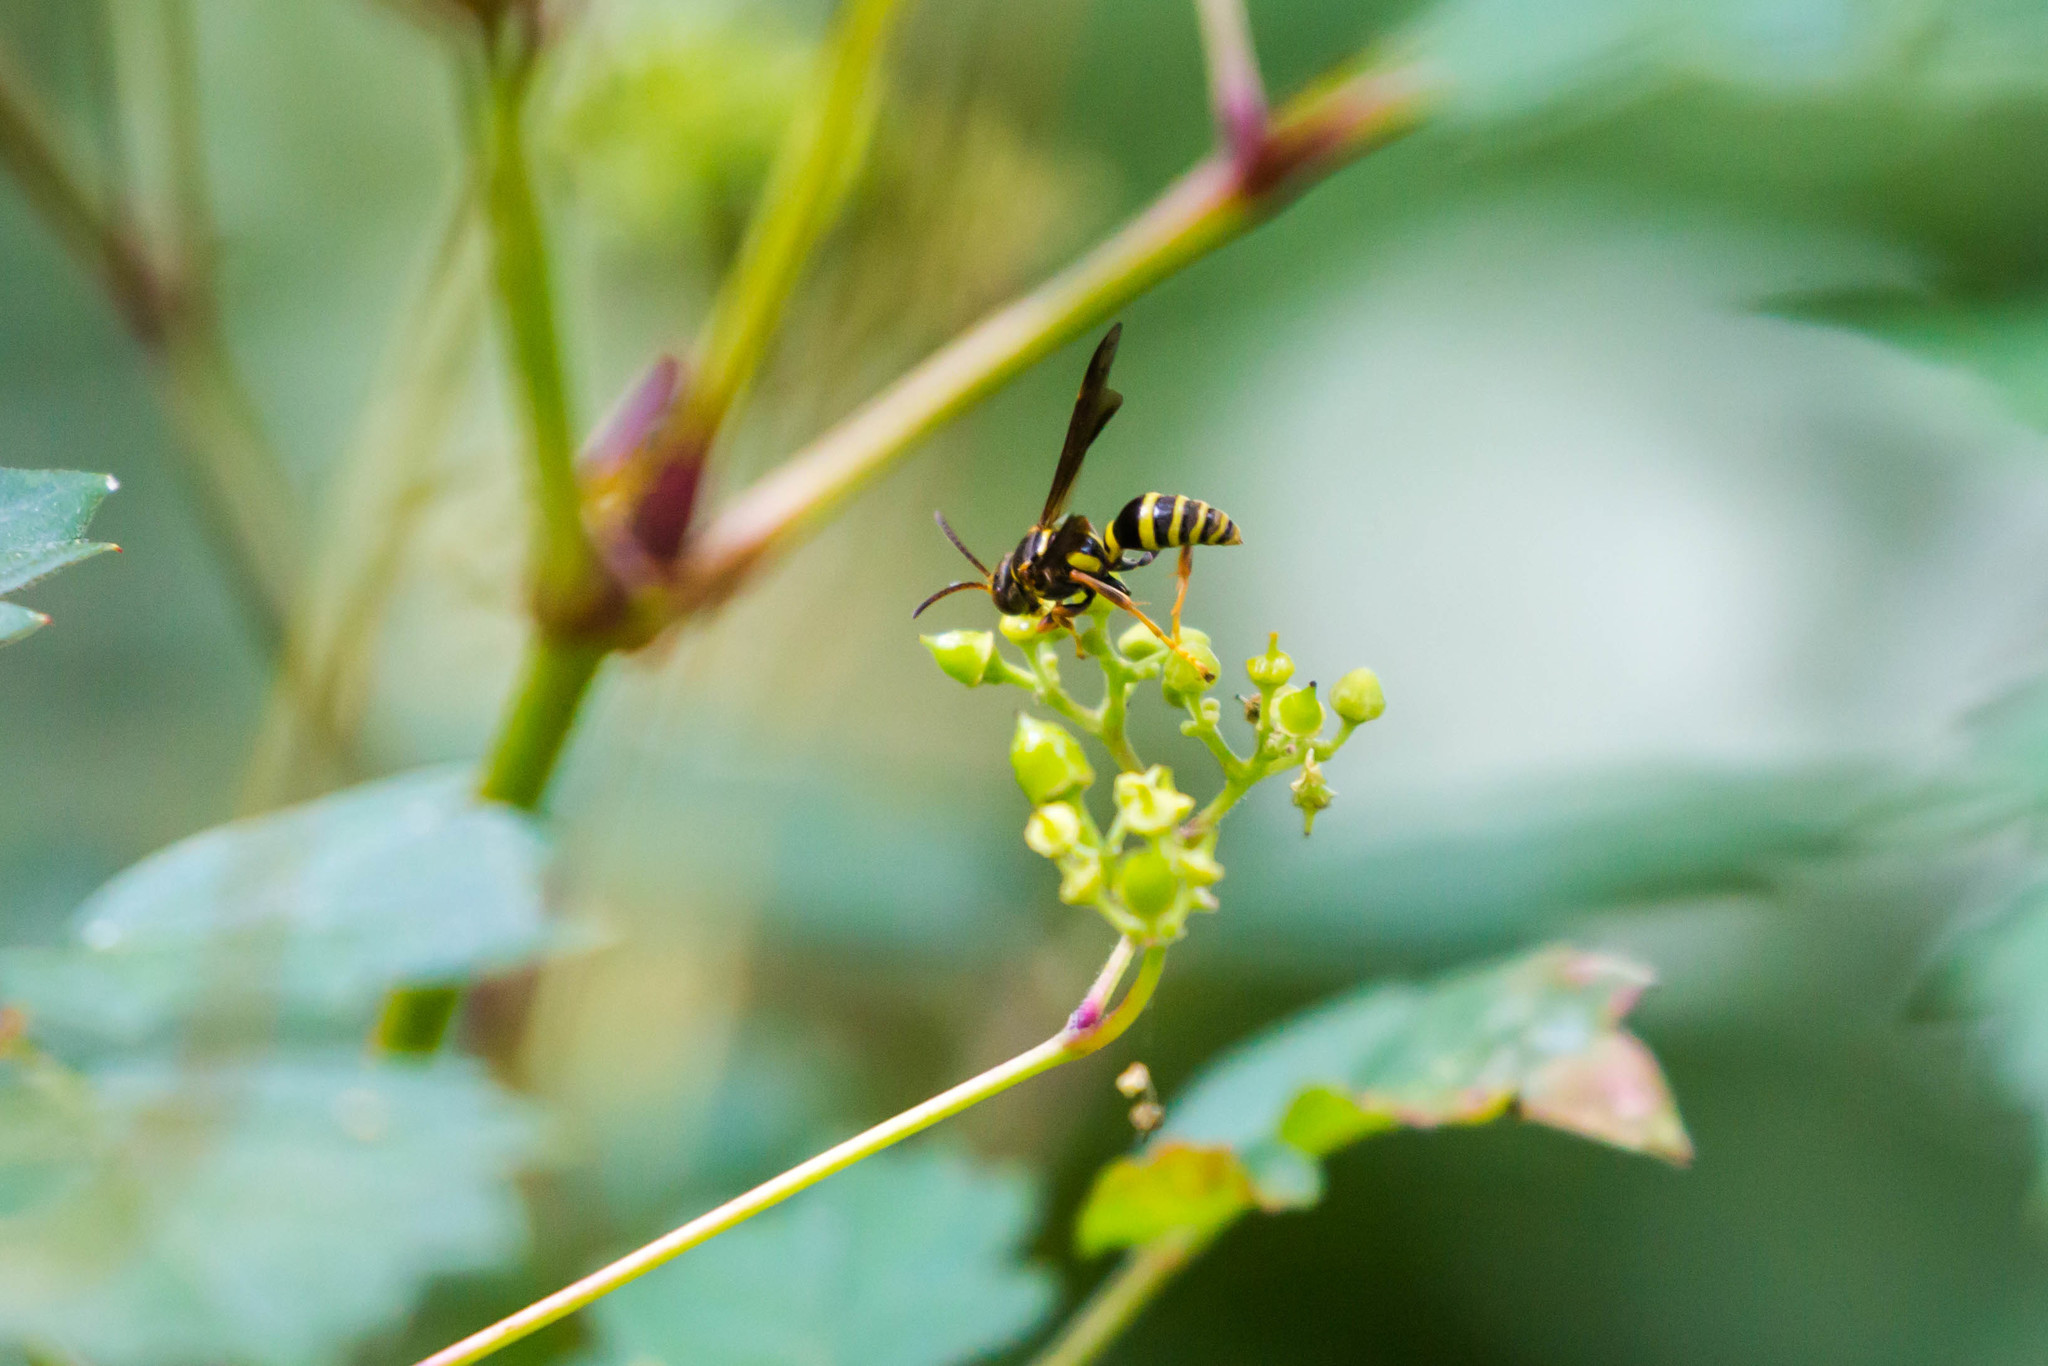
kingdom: Animalia
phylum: Arthropoda
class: Insecta
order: Hymenoptera
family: Crabronidae
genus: Saygorytes
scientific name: Saygorytes phaleratus
